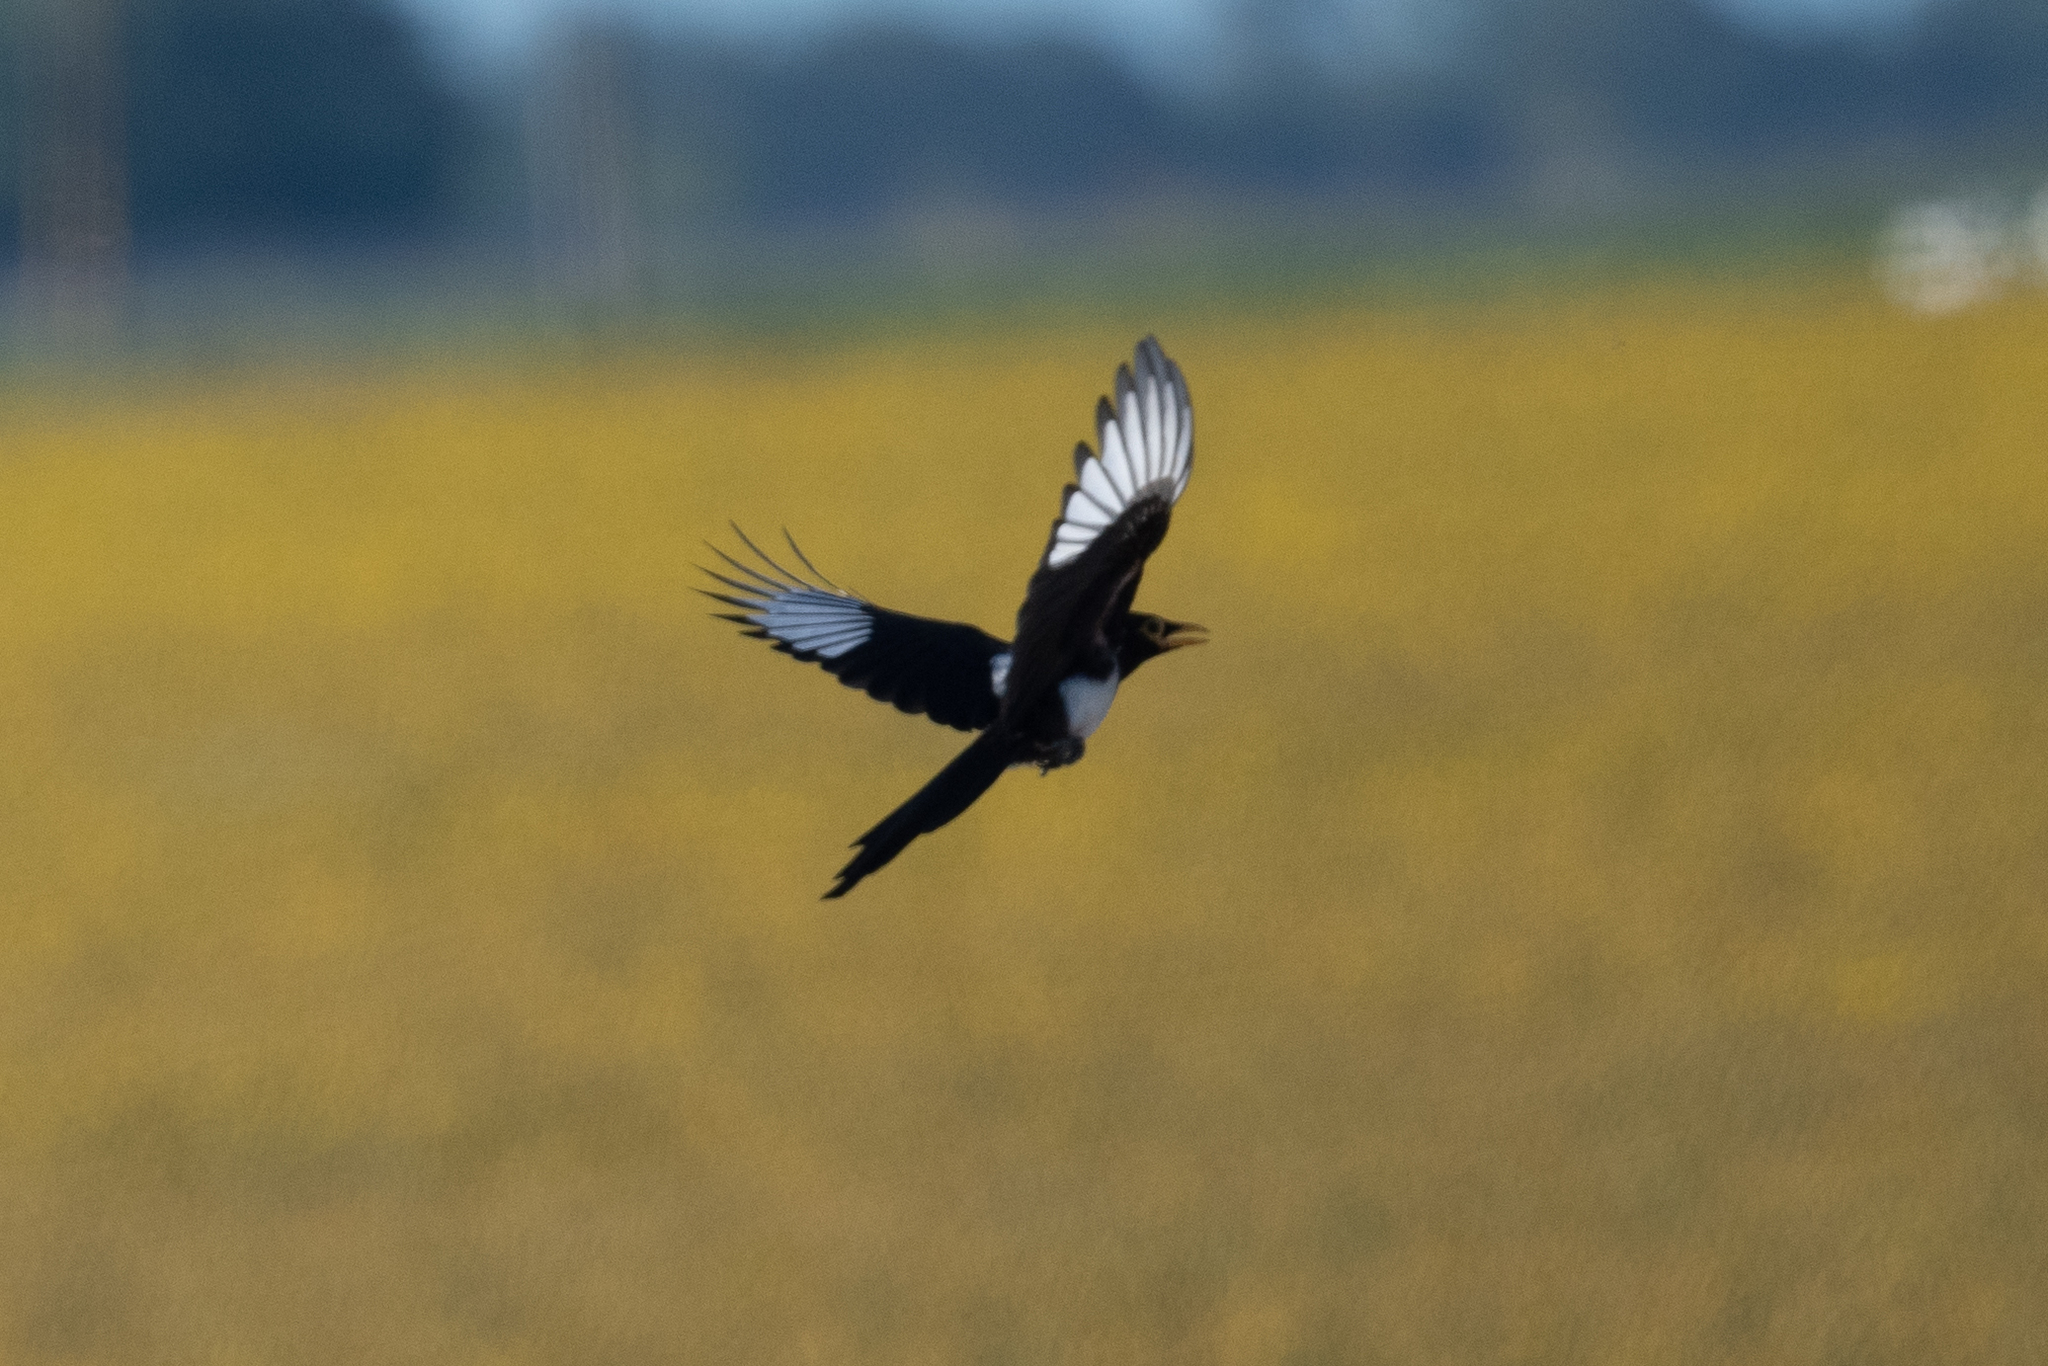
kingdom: Animalia
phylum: Chordata
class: Aves
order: Passeriformes
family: Corvidae
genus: Pica
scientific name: Pica nuttalli
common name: Yellow-billed magpie
